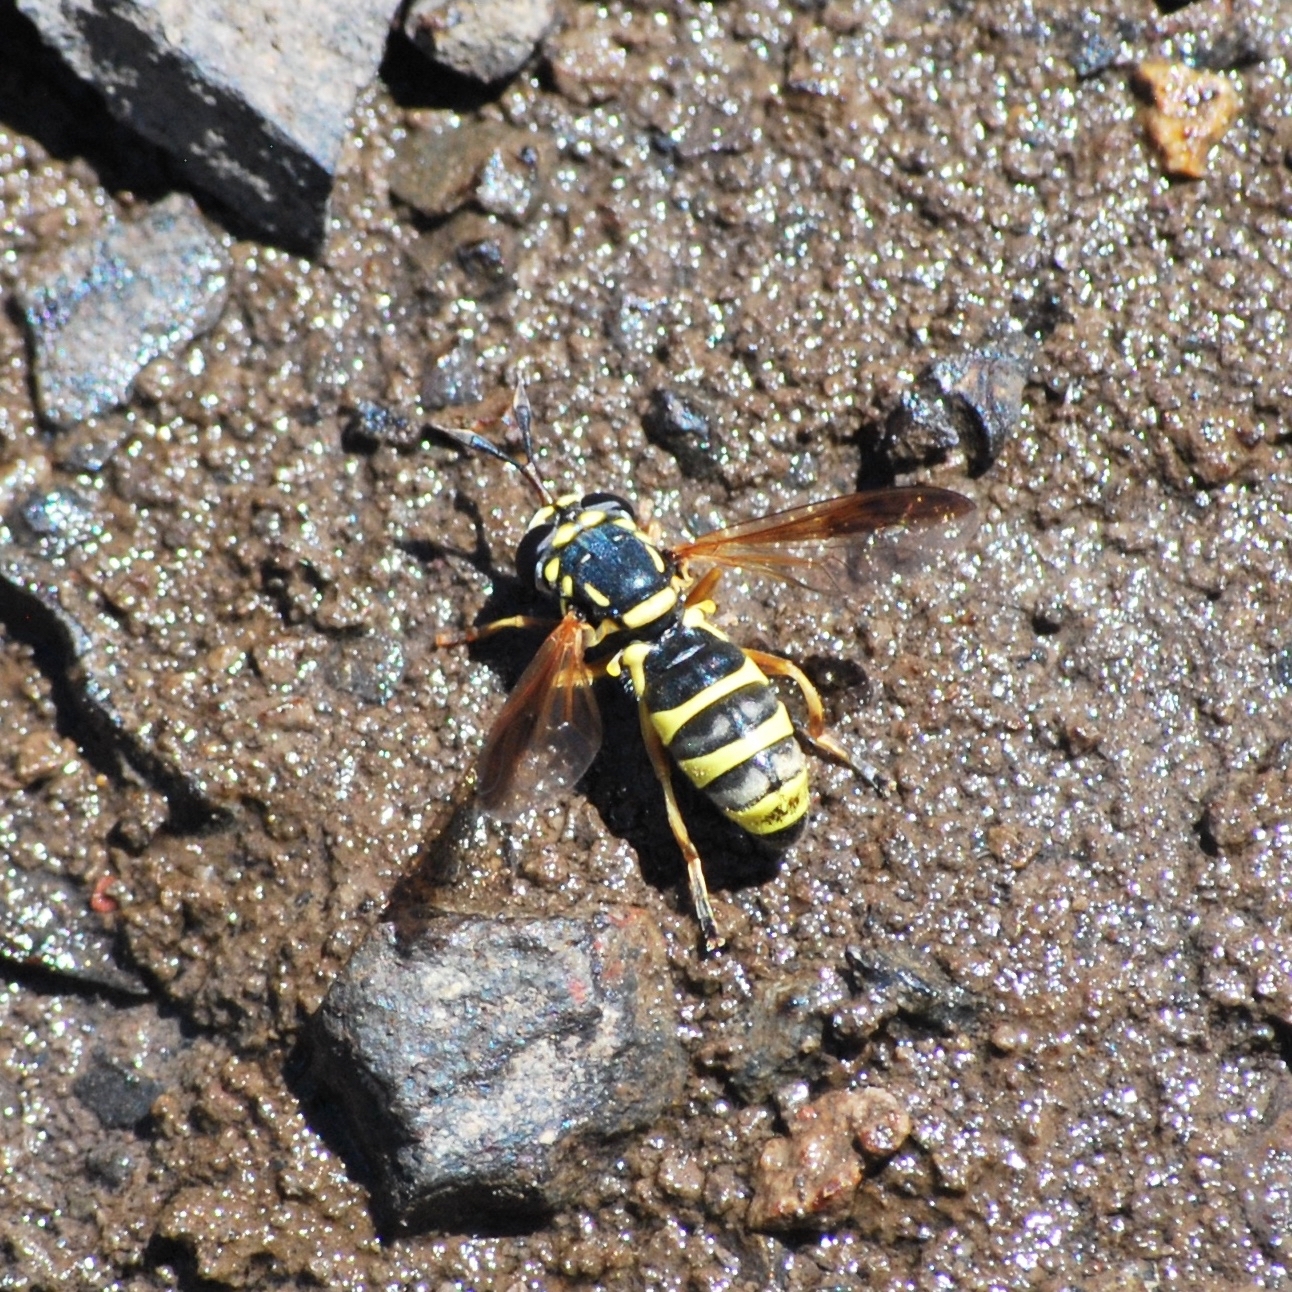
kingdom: Animalia
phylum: Arthropoda
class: Insecta
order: Diptera
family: Syrphidae
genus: Ceriana
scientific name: Ceriana tridens
